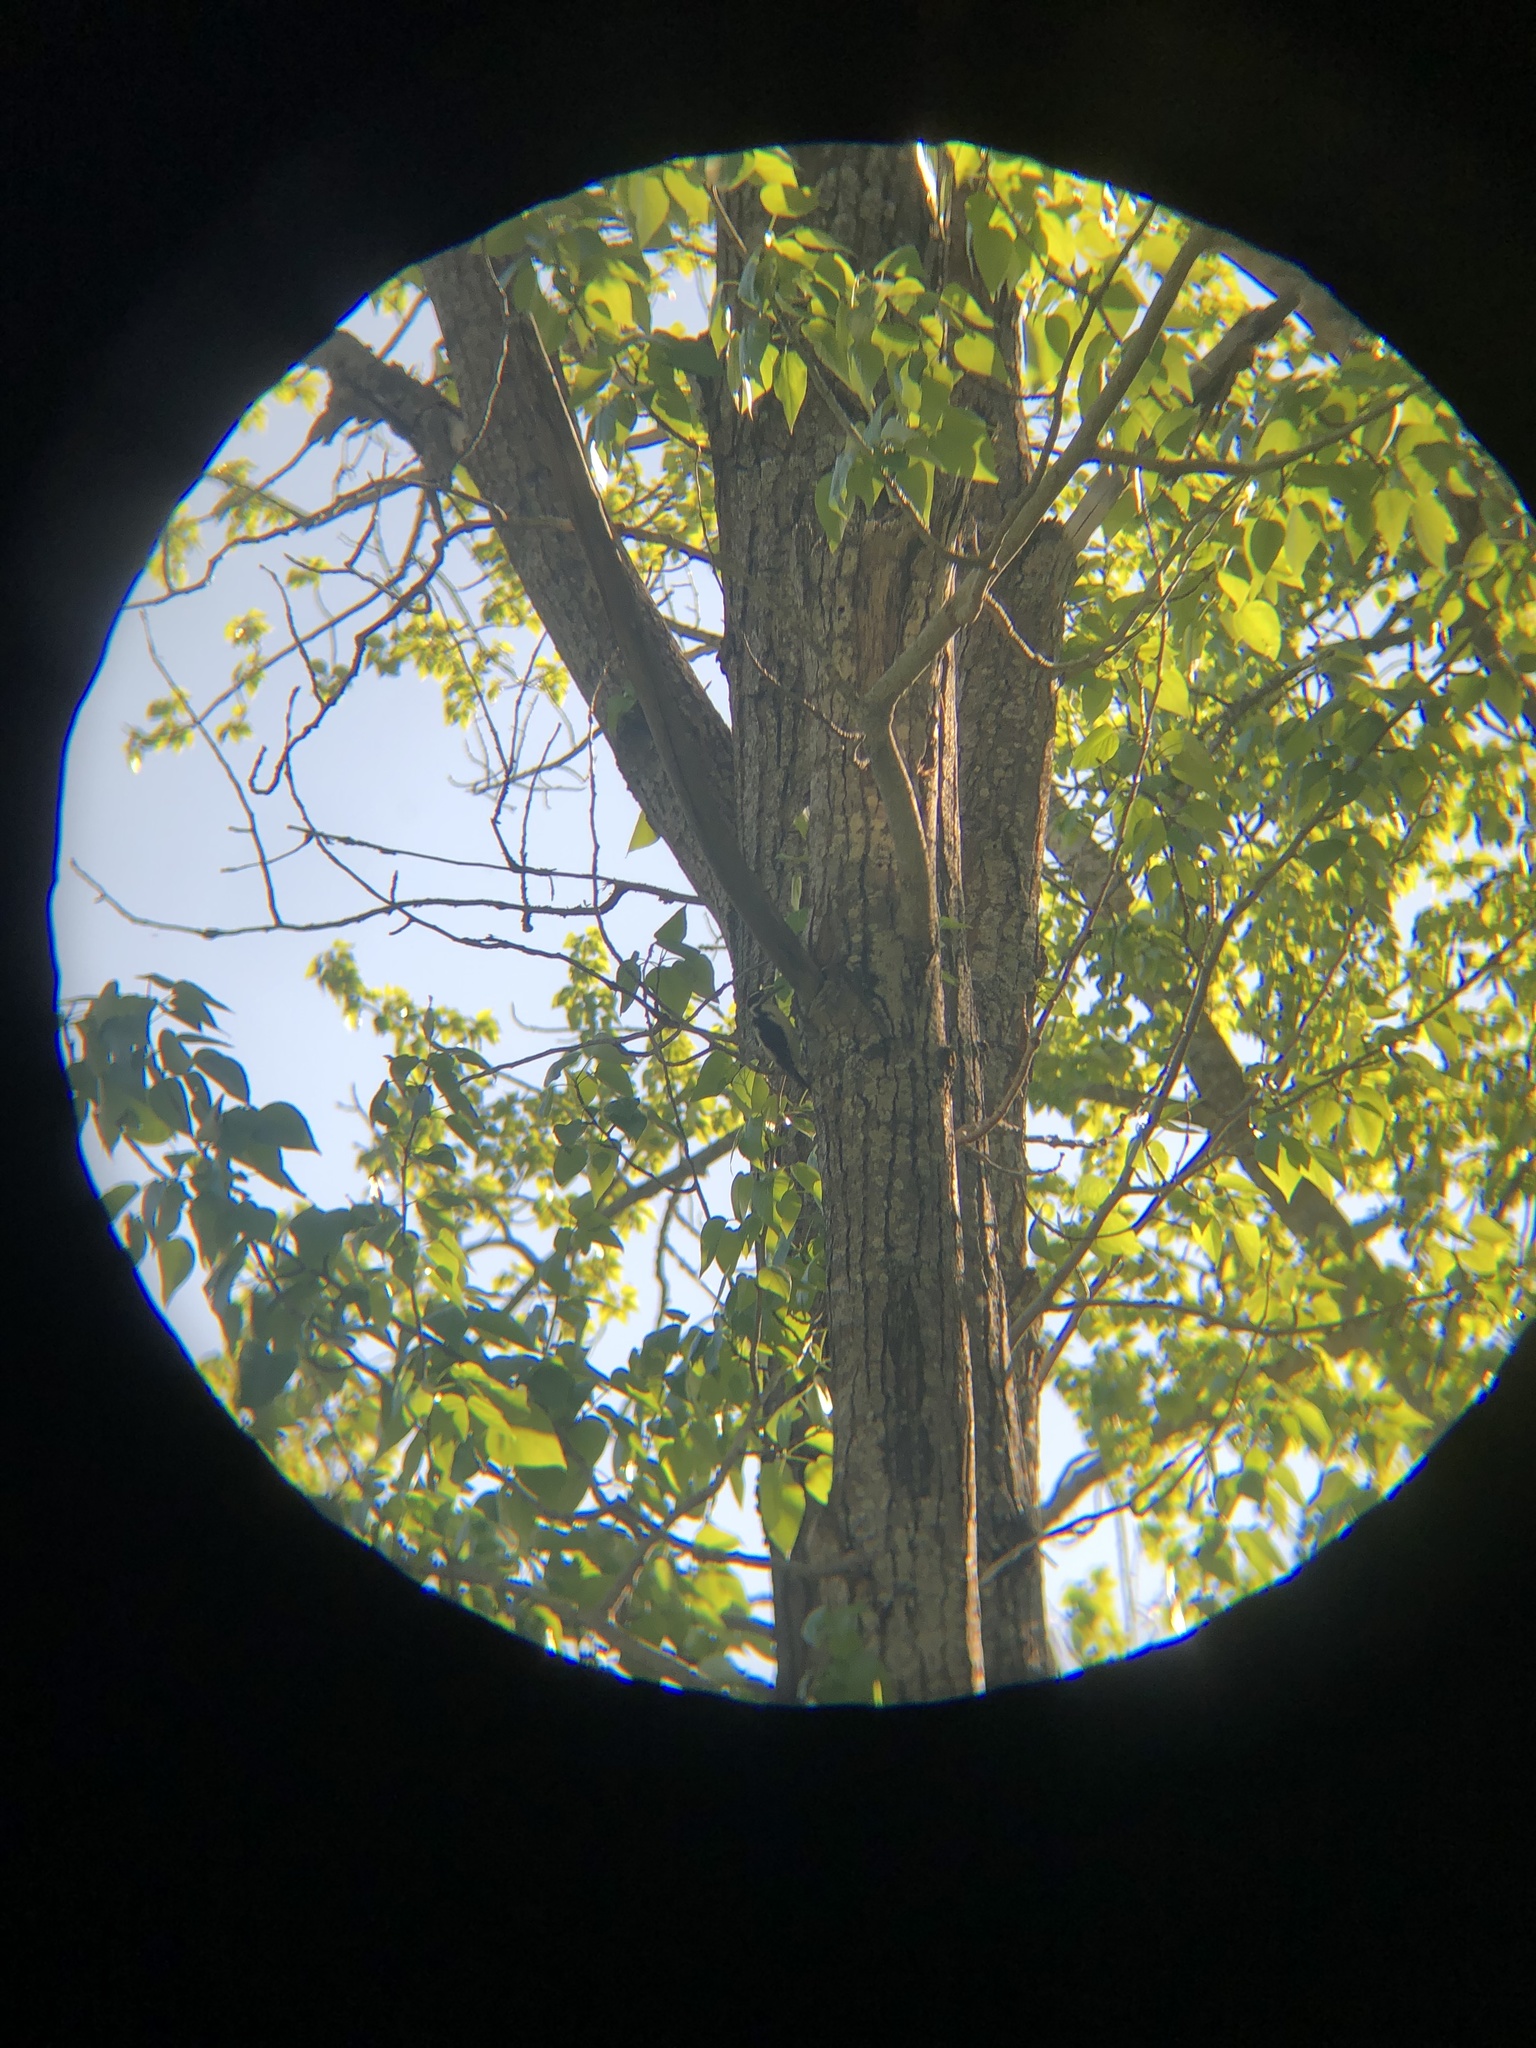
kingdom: Animalia
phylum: Chordata
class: Aves
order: Piciformes
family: Picidae
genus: Leuconotopicus
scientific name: Leuconotopicus villosus
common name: Hairy woodpecker
